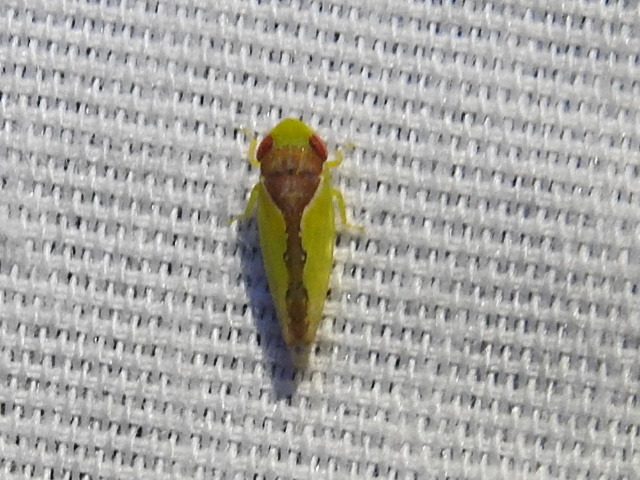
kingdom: Animalia
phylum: Arthropoda
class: Insecta
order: Hemiptera
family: Cicadellidae
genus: Omansobara ing
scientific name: Omansobara ing Omansobara palliolata
